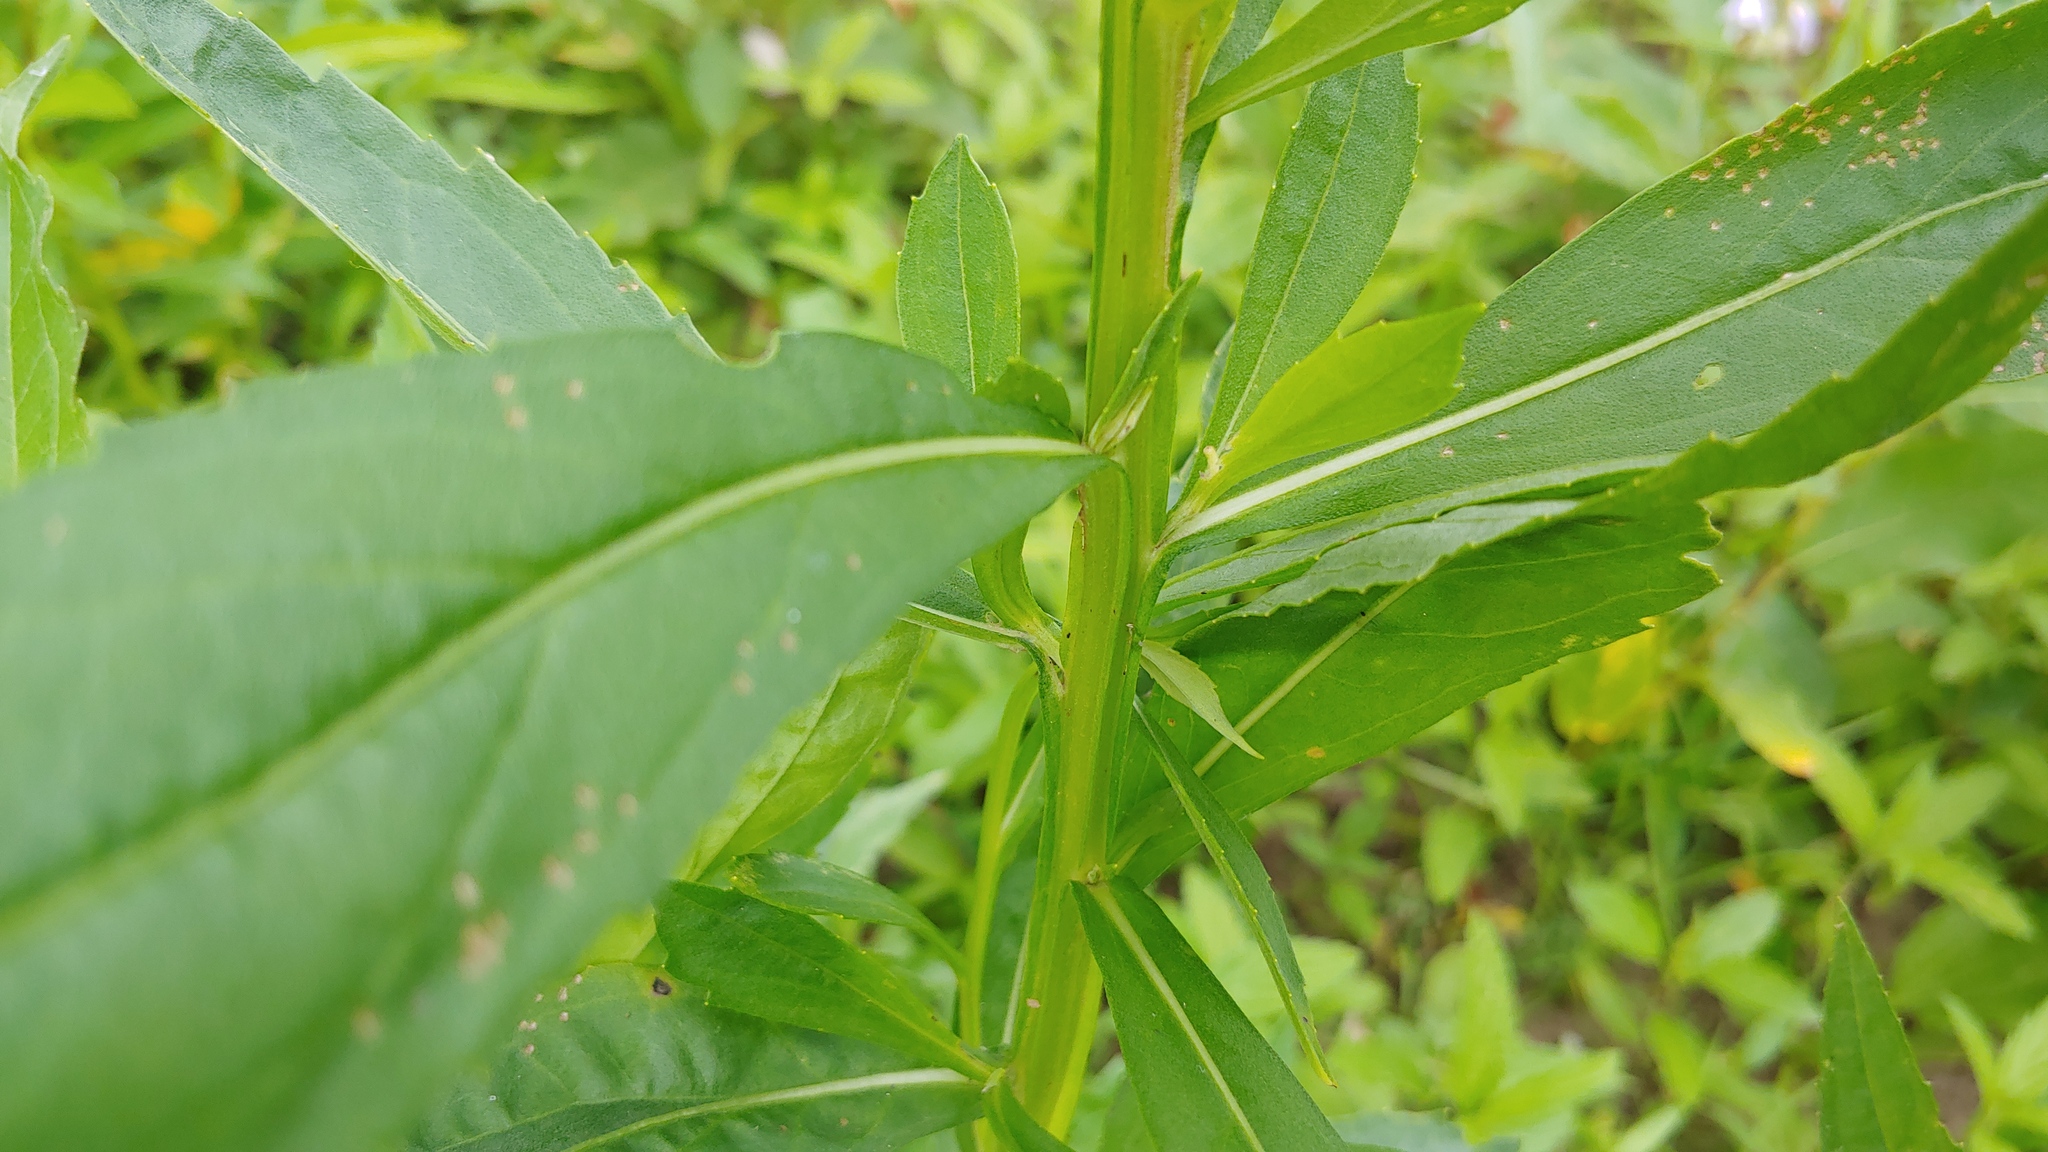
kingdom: Plantae
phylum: Tracheophyta
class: Magnoliopsida
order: Asterales
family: Asteraceae
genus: Helenium
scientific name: Helenium autumnale
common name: Sneezeweed
